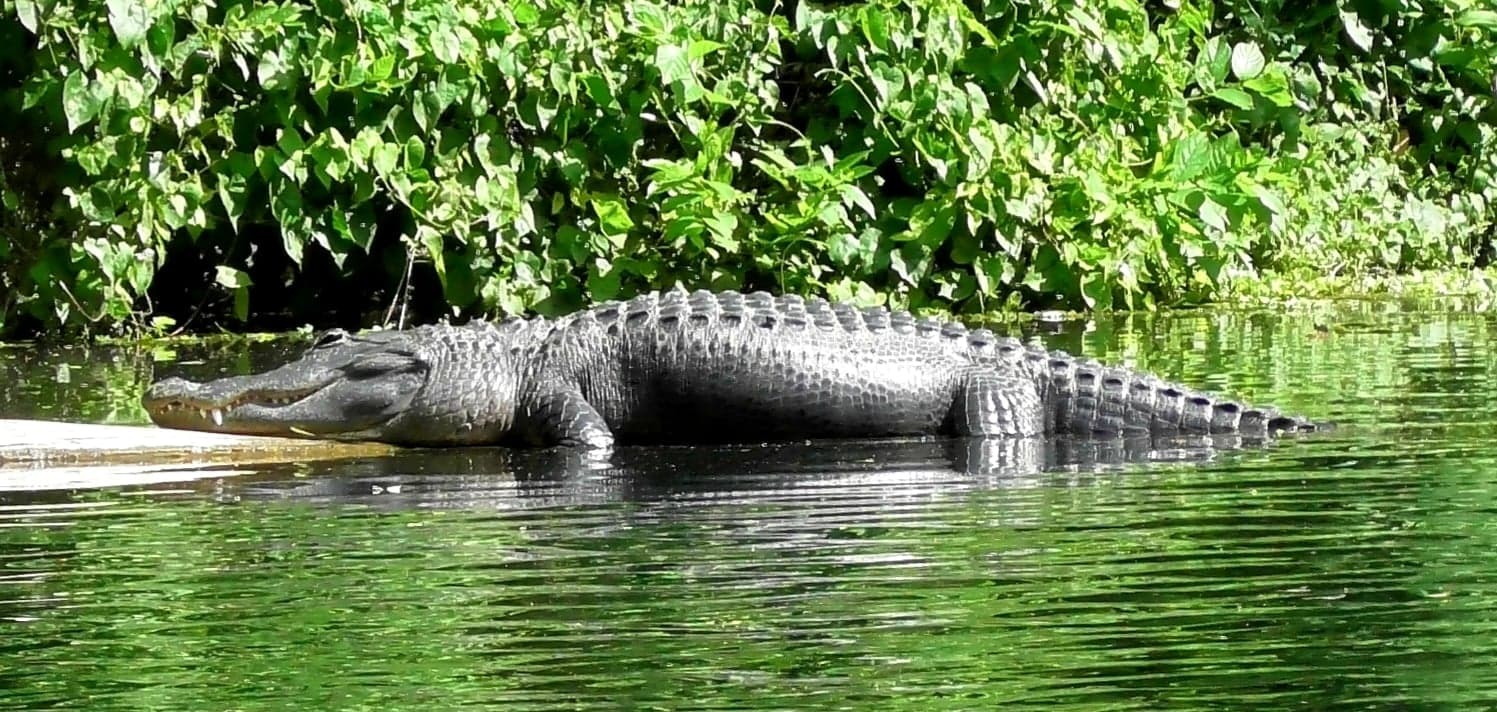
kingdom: Animalia
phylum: Chordata
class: Crocodylia
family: Alligatoridae
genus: Alligator
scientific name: Alligator mississippiensis
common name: American alligator
